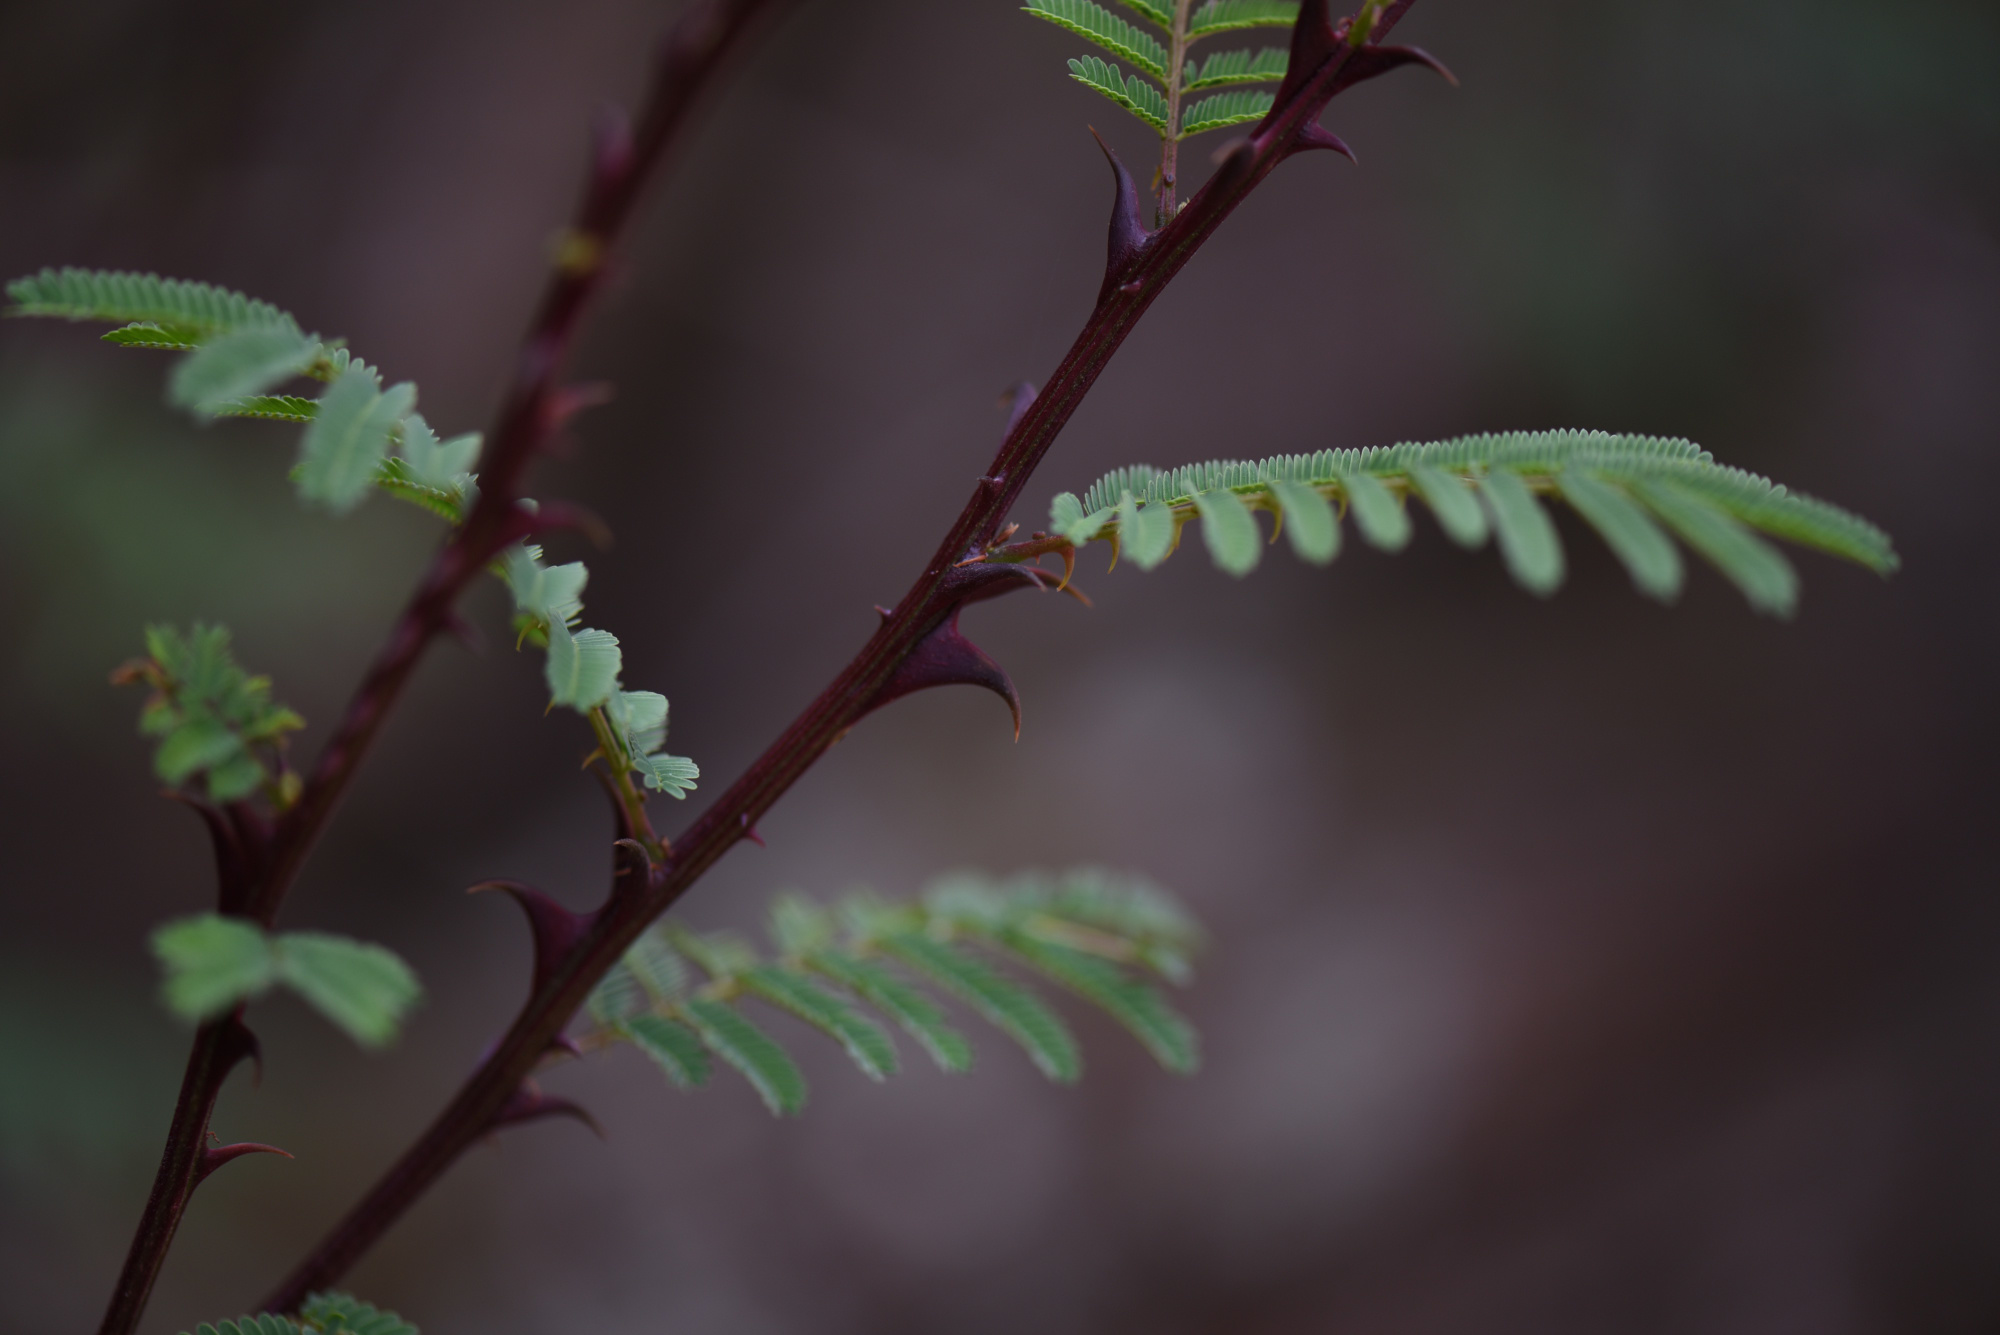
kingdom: Plantae
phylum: Tracheophyta
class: Magnoliopsida
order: Fabales
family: Fabaceae
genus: Senegalia
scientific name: Senegalia ataxacantha
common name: Flame acacia
